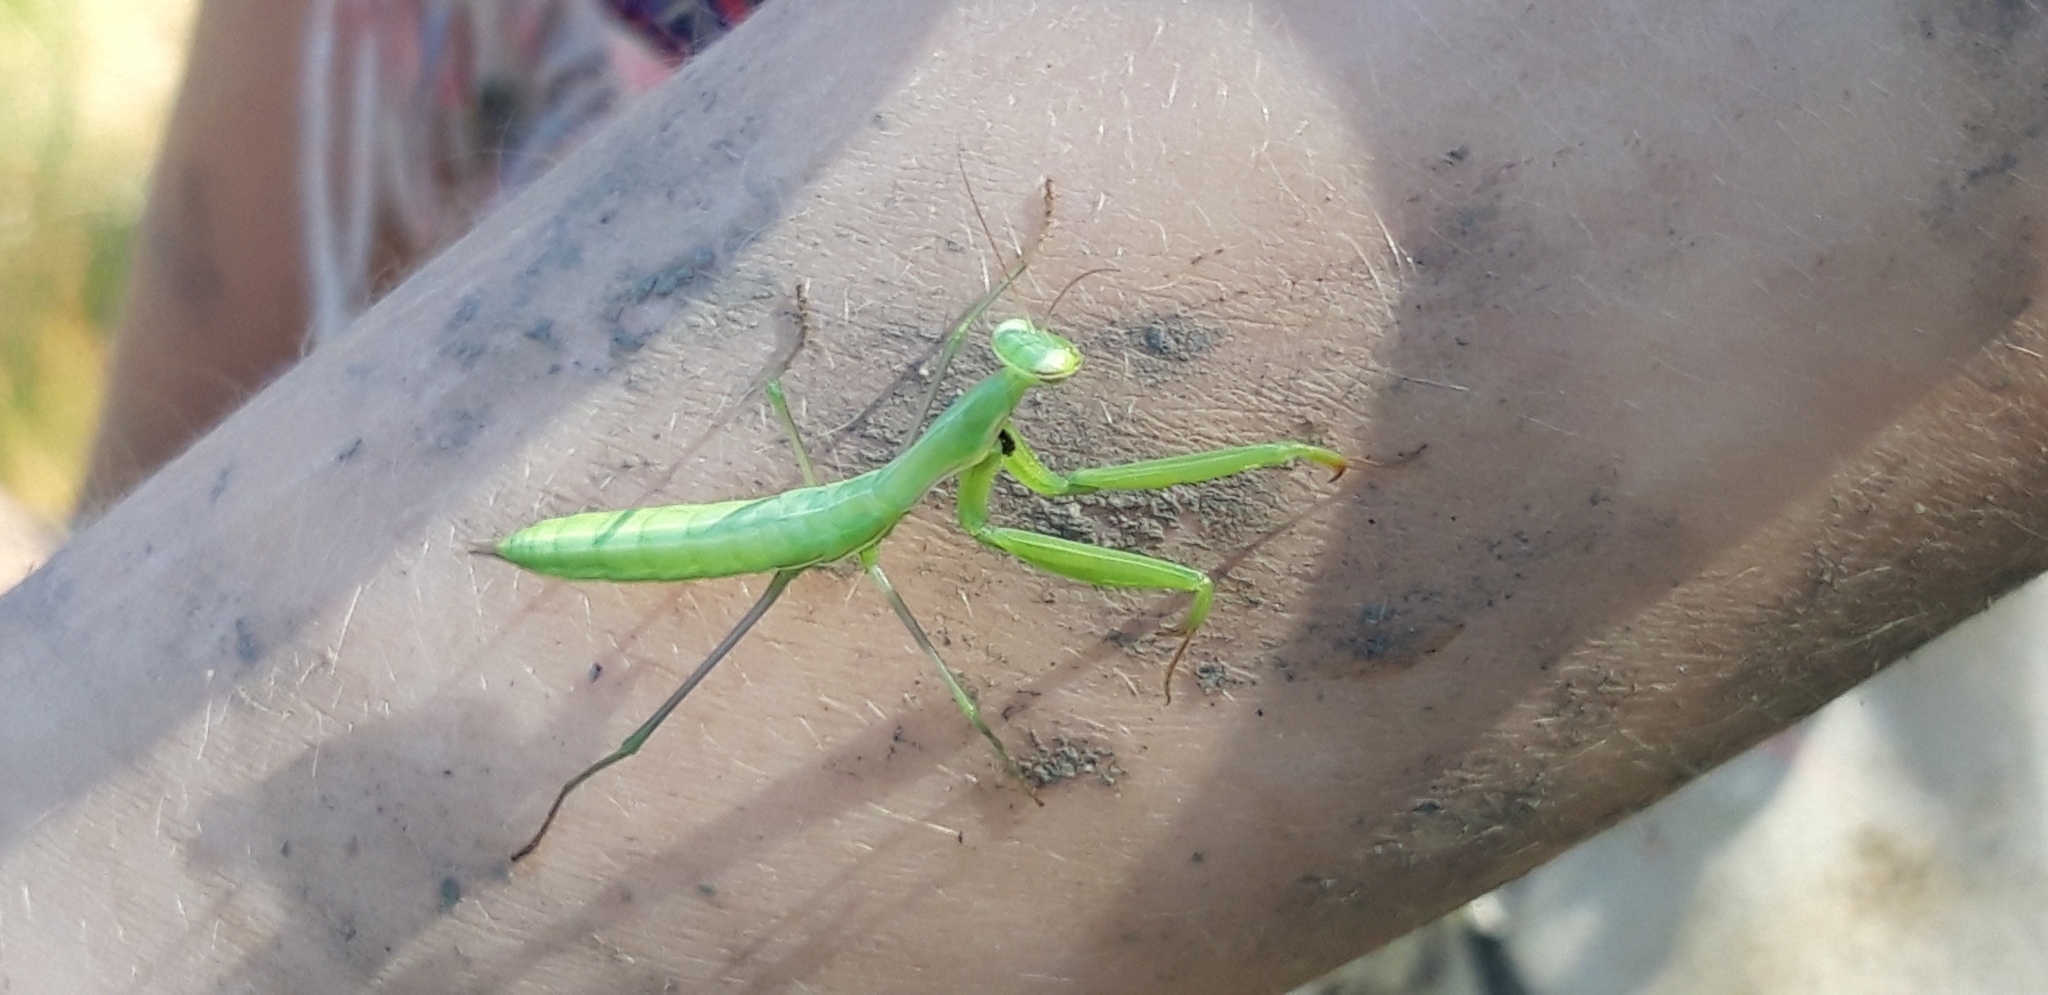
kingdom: Animalia
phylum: Arthropoda
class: Insecta
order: Mantodea
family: Mantidae
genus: Mantis
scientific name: Mantis religiosa
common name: Praying mantis
